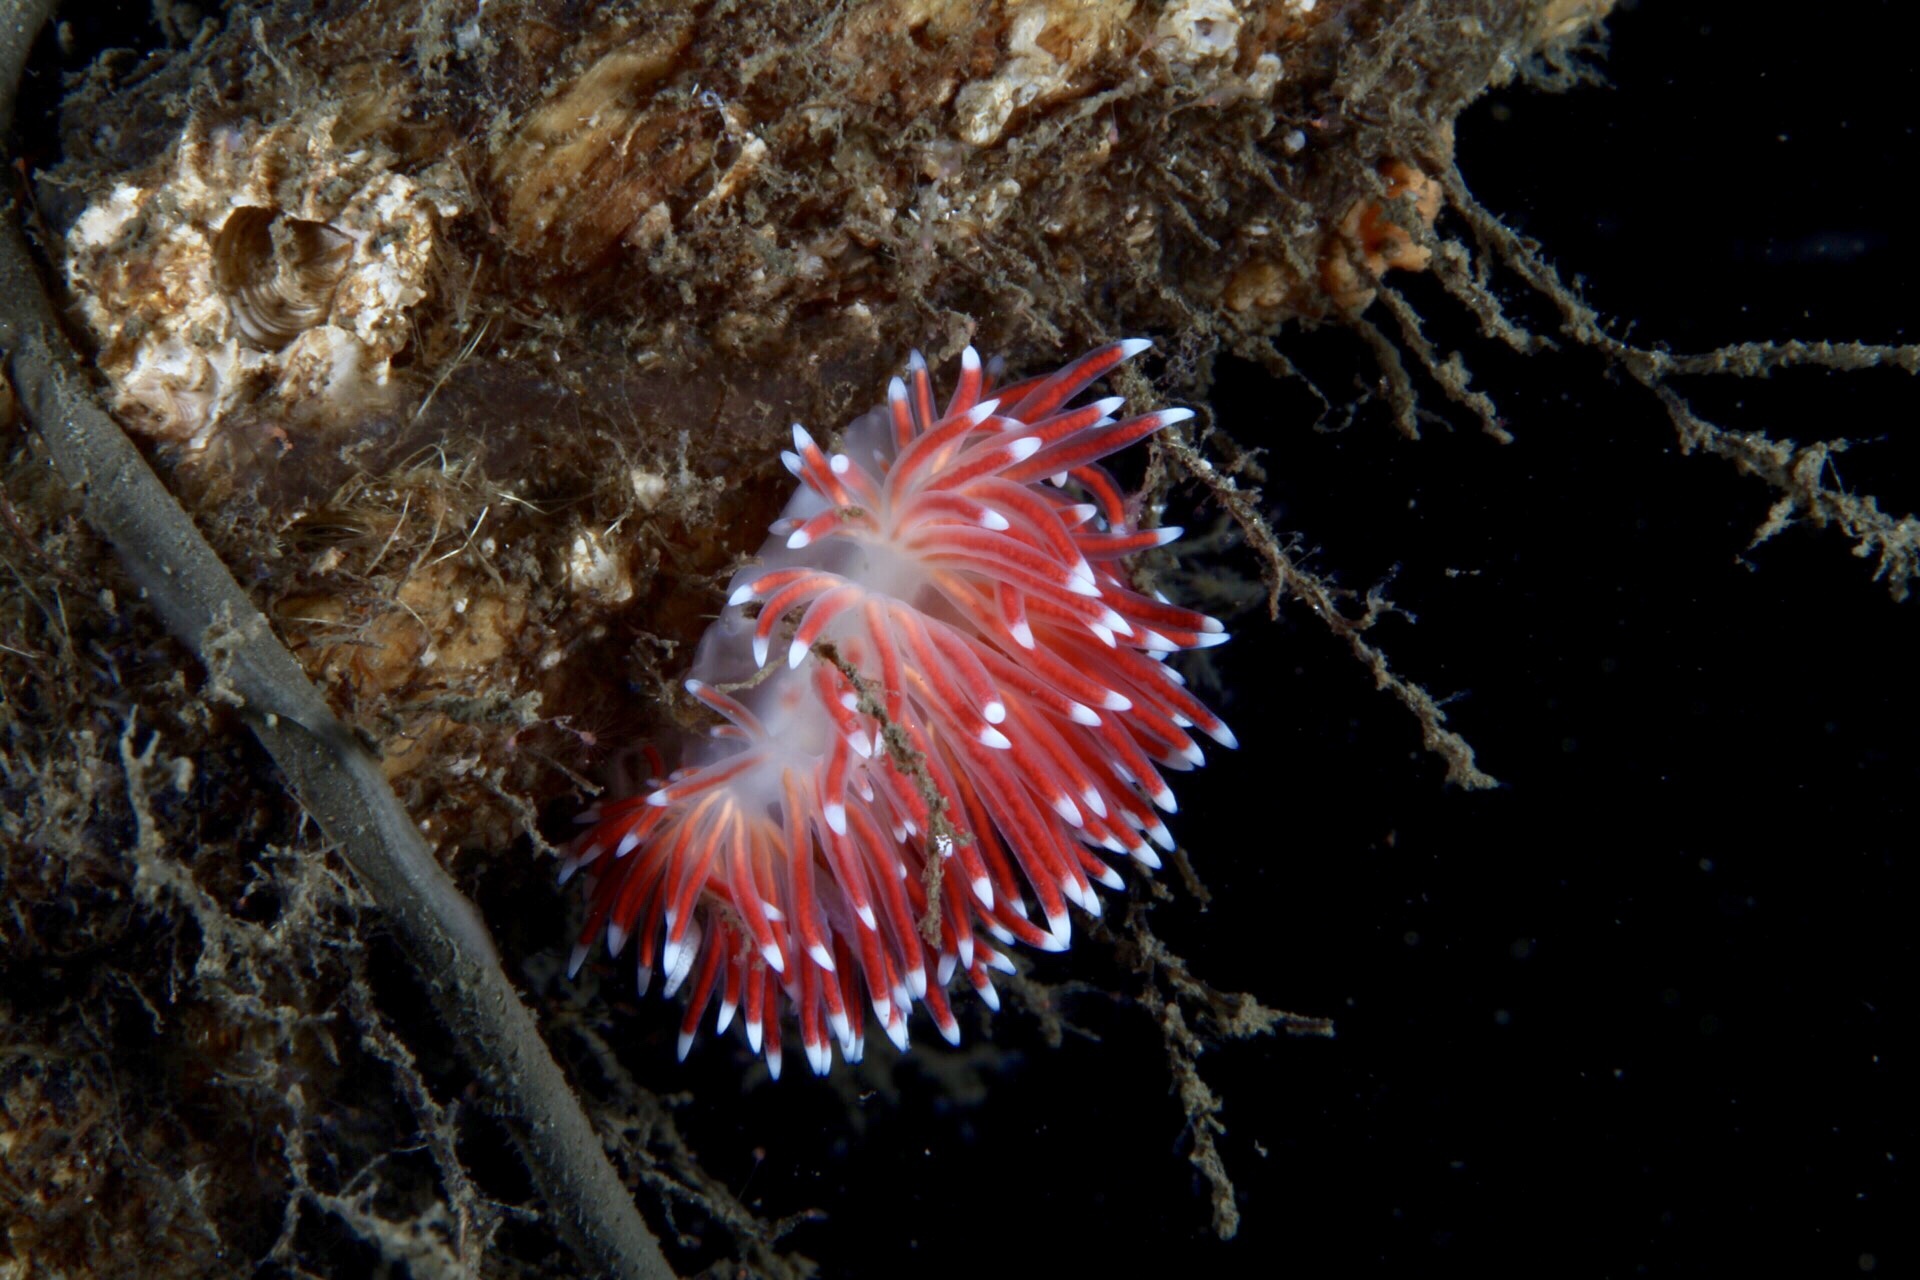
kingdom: Animalia
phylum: Mollusca
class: Gastropoda
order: Nudibranchia
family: Flabellinidae
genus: Carronella
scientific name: Carronella pellucida
